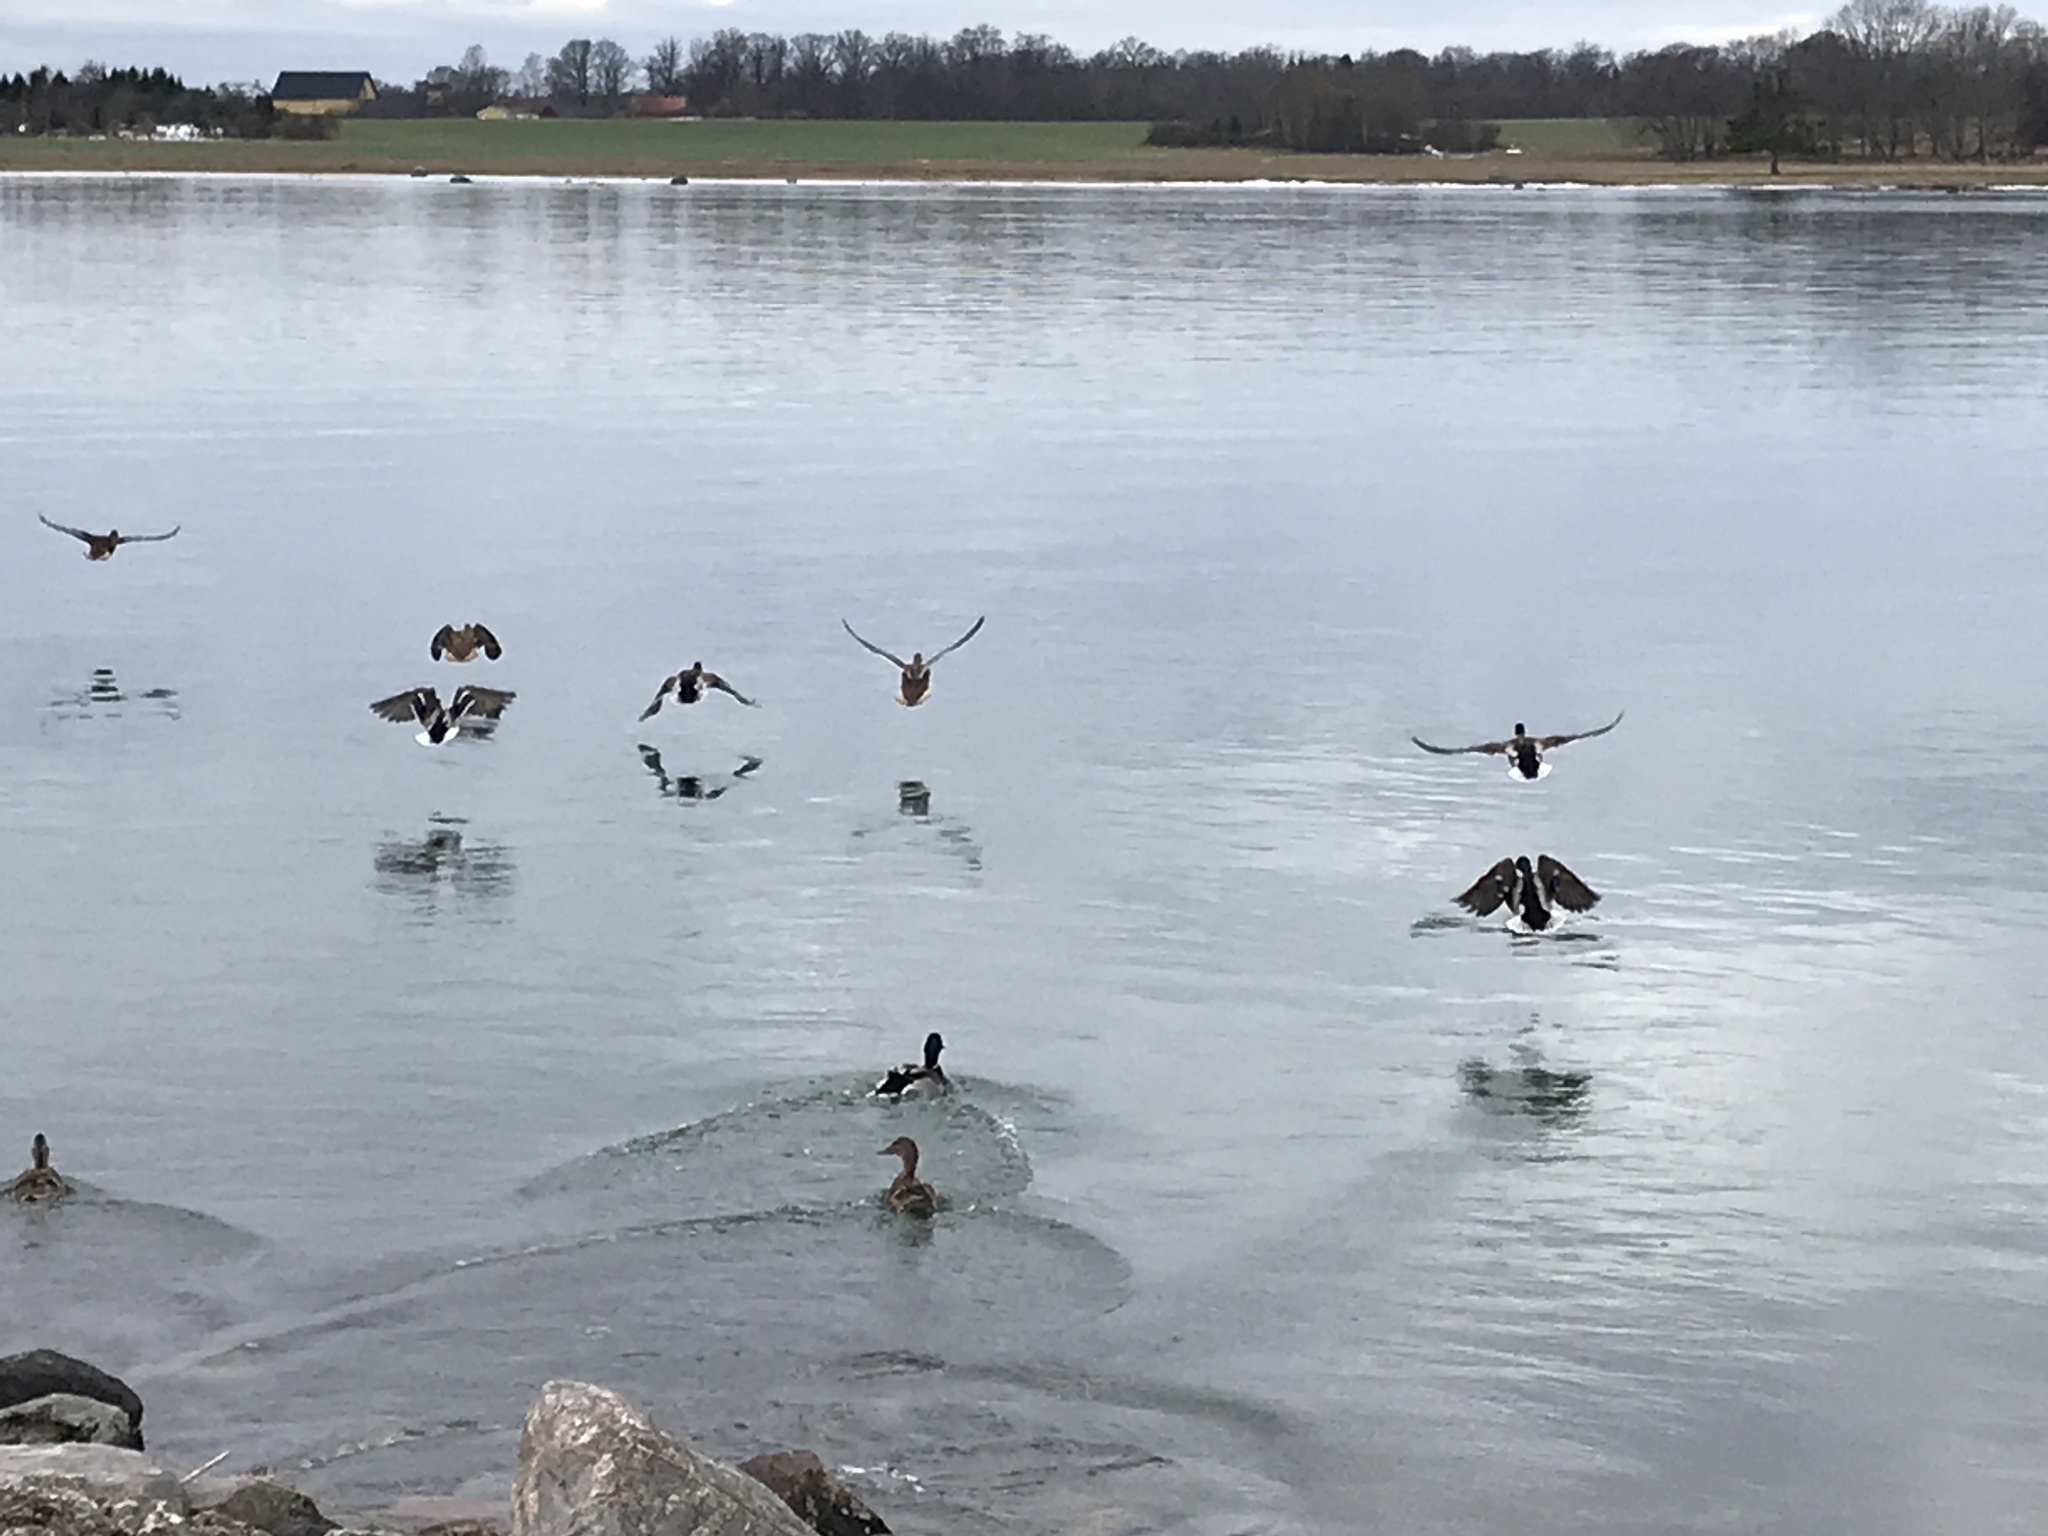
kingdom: Animalia
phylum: Chordata
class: Aves
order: Anseriformes
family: Anatidae
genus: Anas
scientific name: Anas platyrhynchos
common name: Mallard
